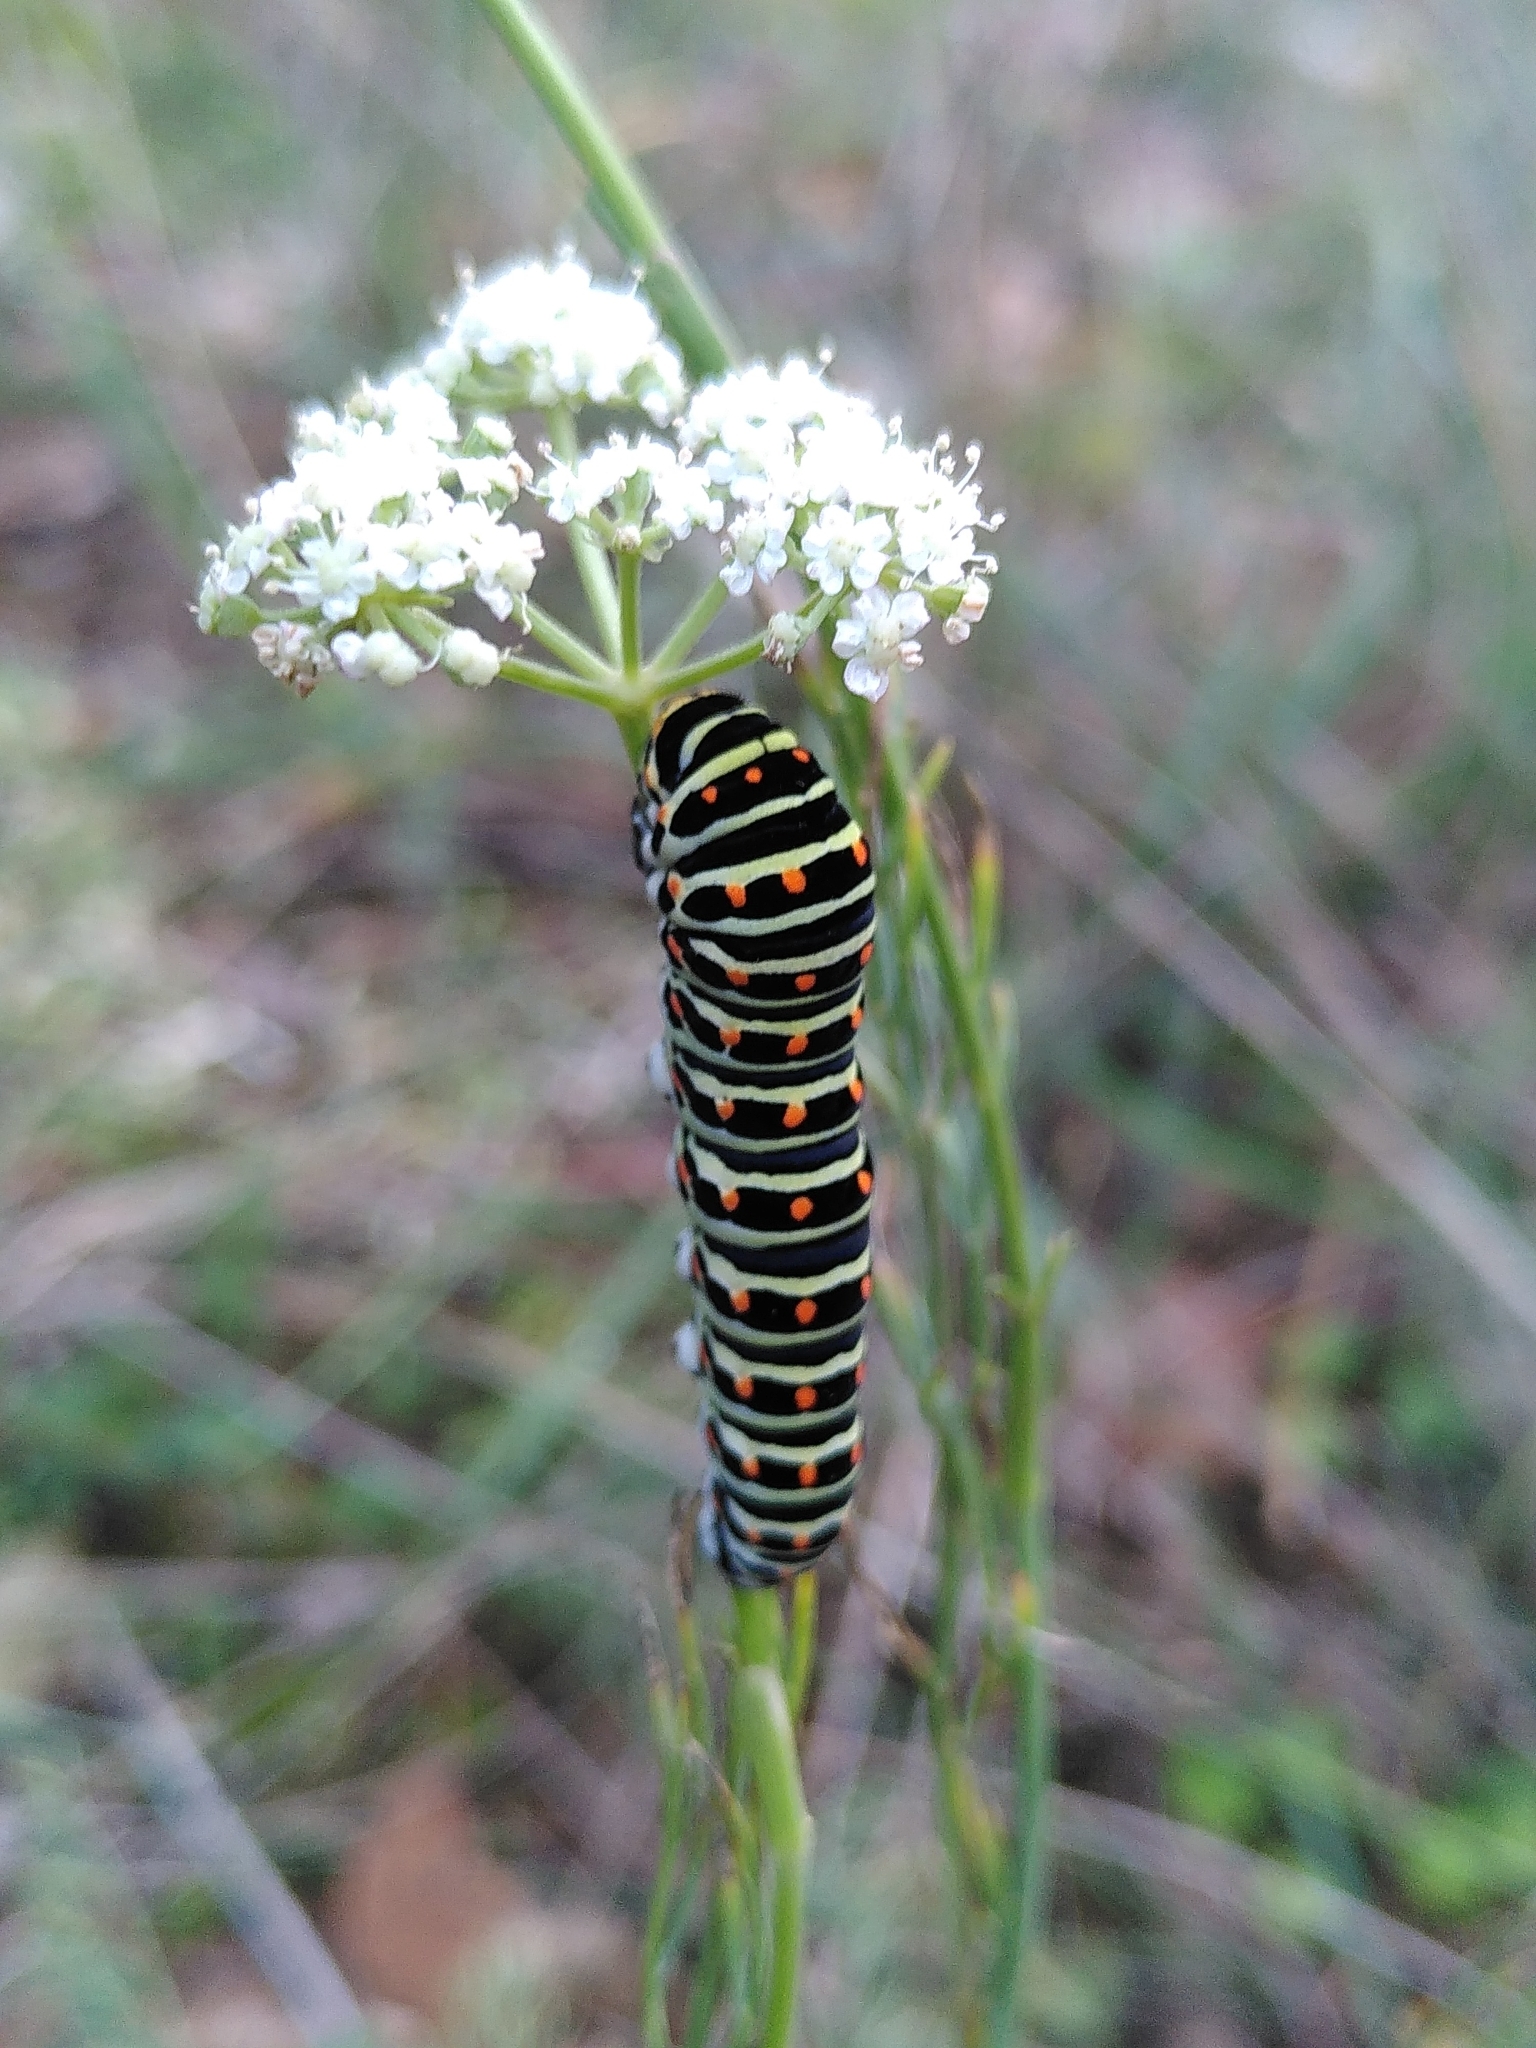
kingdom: Animalia
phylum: Arthropoda
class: Insecta
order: Lepidoptera
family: Papilionidae
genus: Papilio
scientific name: Papilio machaon
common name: Swallowtail
